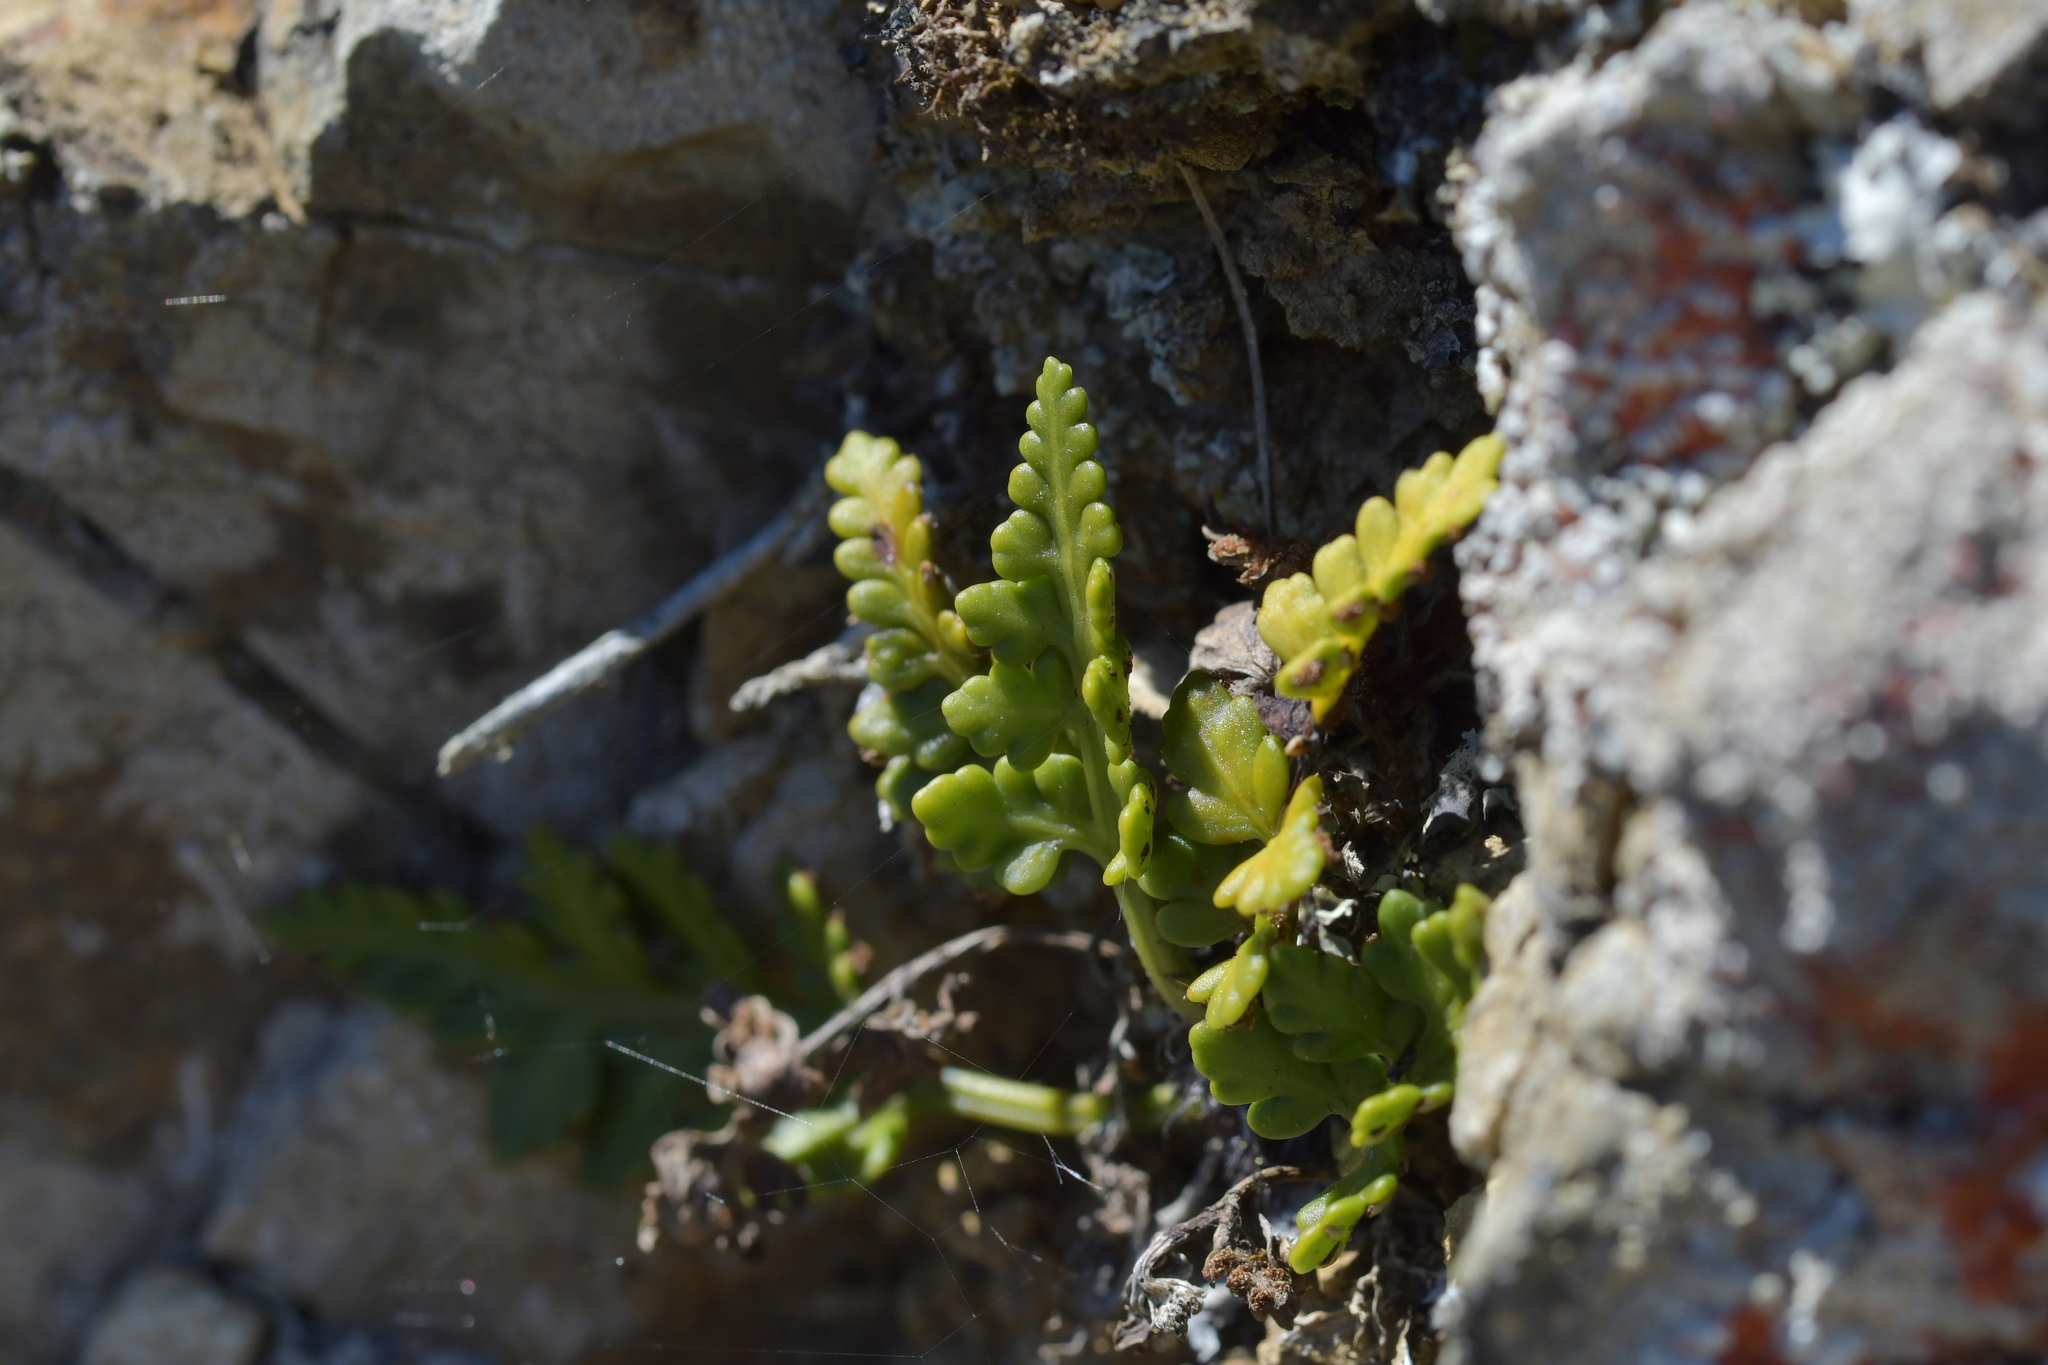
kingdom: Plantae
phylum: Tracheophyta
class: Polypodiopsida
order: Polypodiales
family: Aspleniaceae
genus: Asplenium
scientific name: Asplenium appendiculatum
